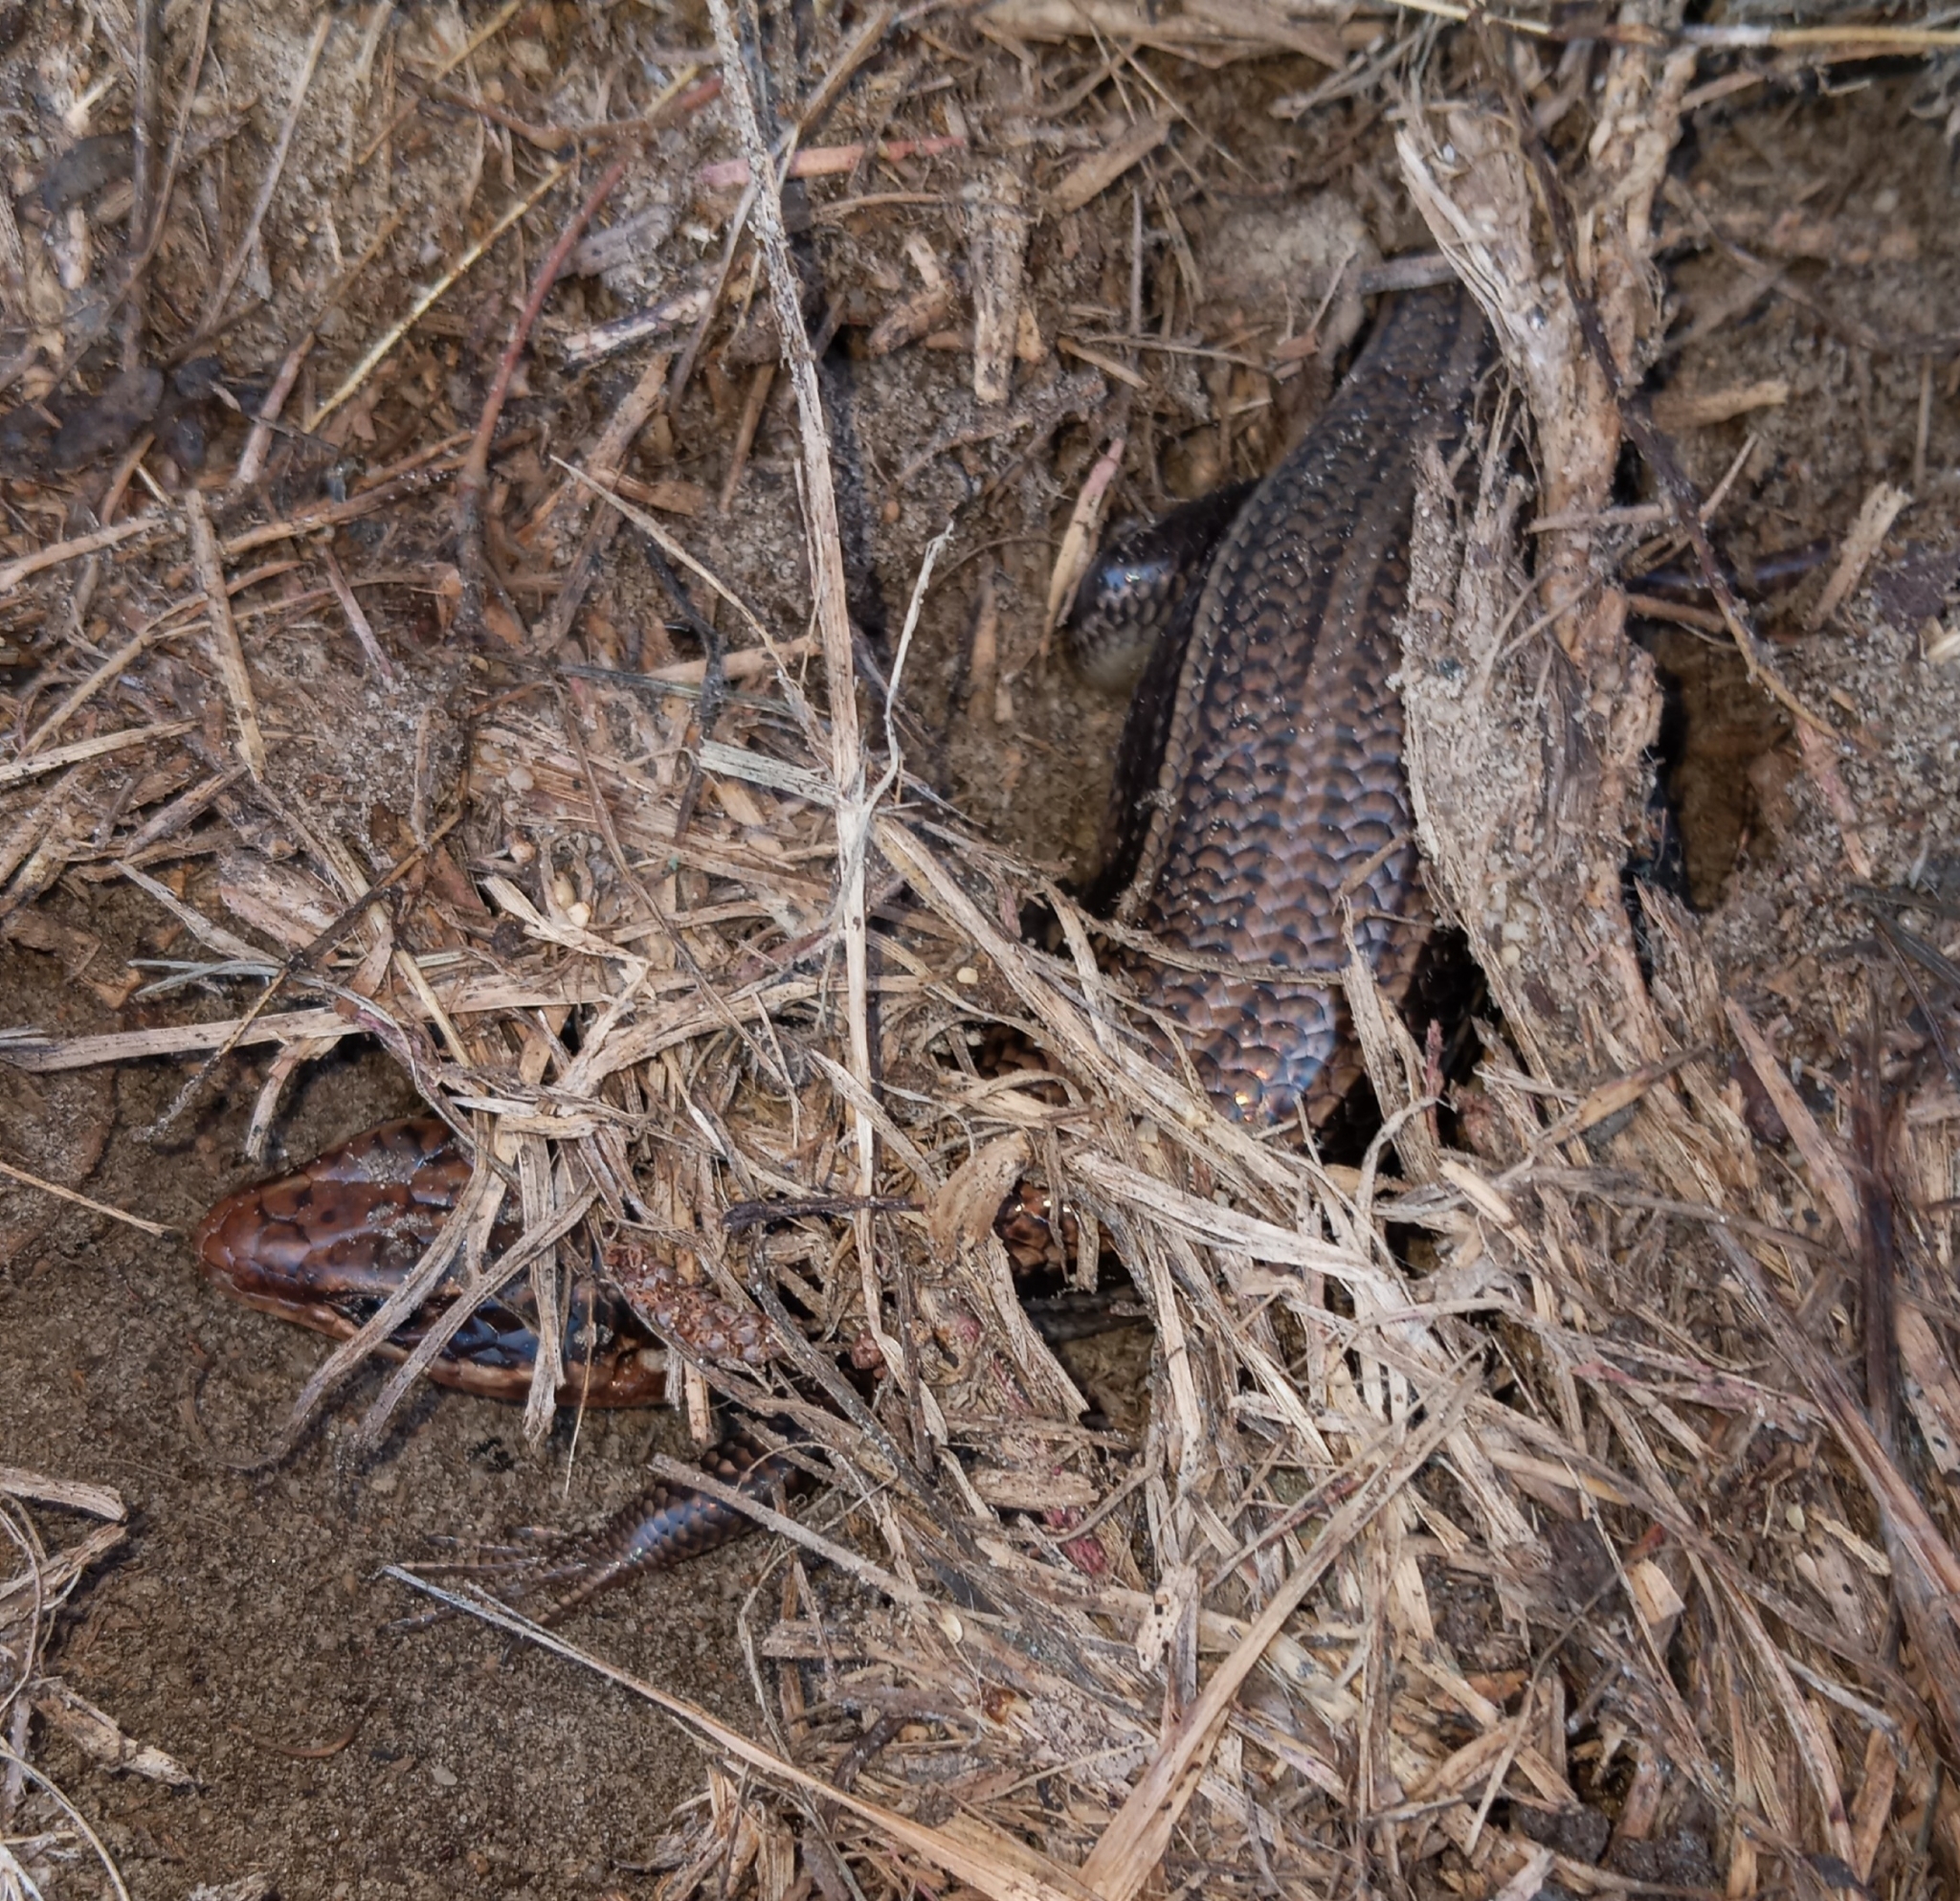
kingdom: Animalia
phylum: Chordata
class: Squamata
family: Scincidae
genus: Plestiodon
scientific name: Plestiodon laticeps
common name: Broadhead skink
